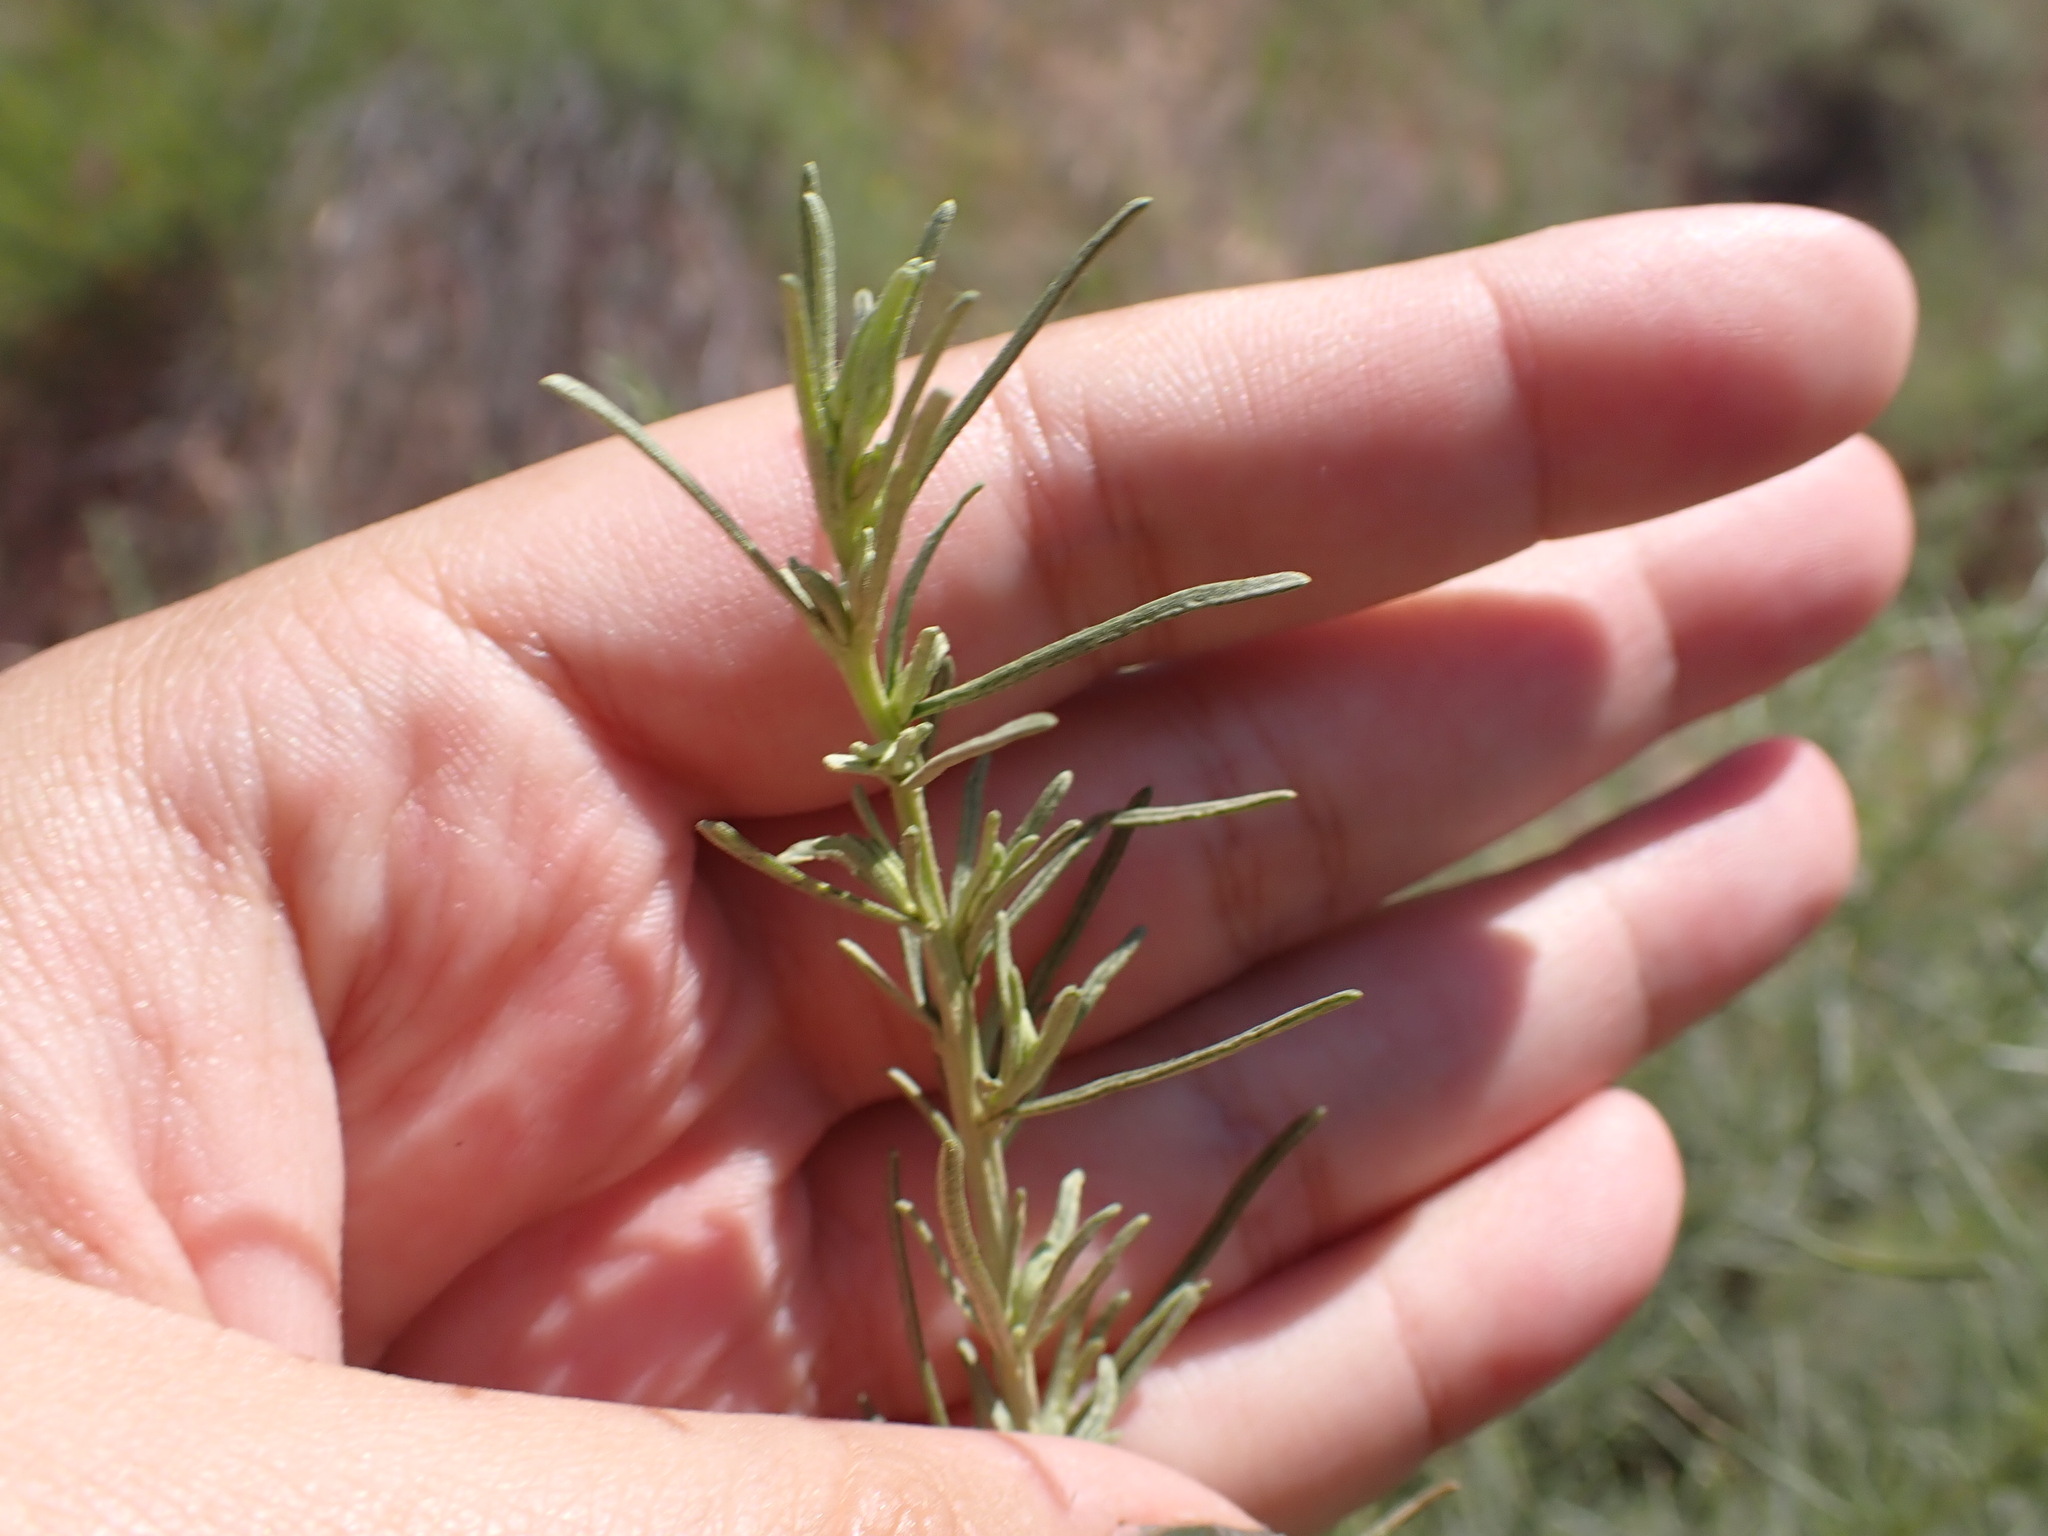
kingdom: Plantae
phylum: Tracheophyta
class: Magnoliopsida
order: Asterales
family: Asteraceae
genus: Artemisia
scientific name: Artemisia californica
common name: California sagebrush
